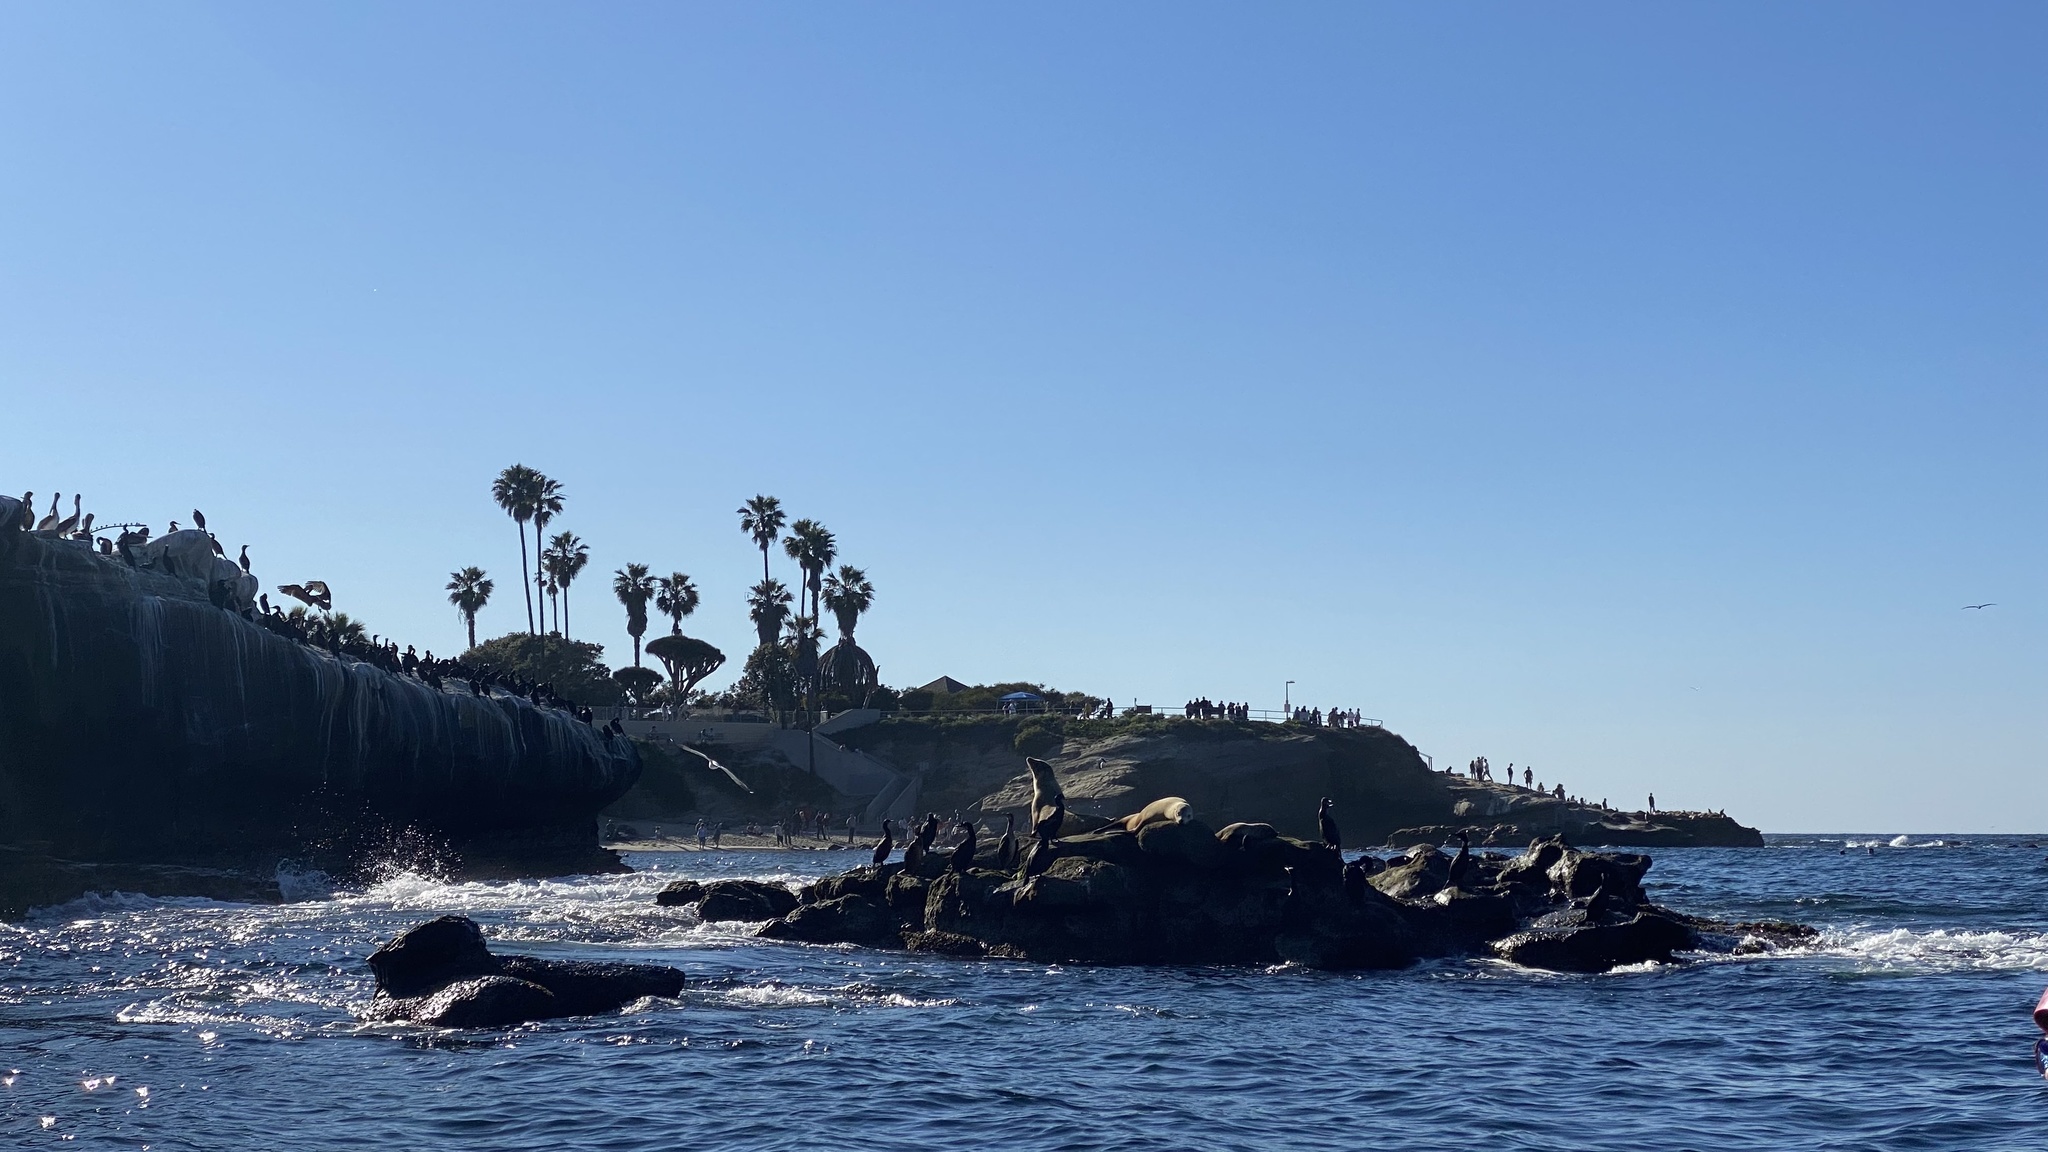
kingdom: Animalia
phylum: Chordata
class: Mammalia
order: Carnivora
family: Otariidae
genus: Zalophus
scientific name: Zalophus californianus
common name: California sea lion
